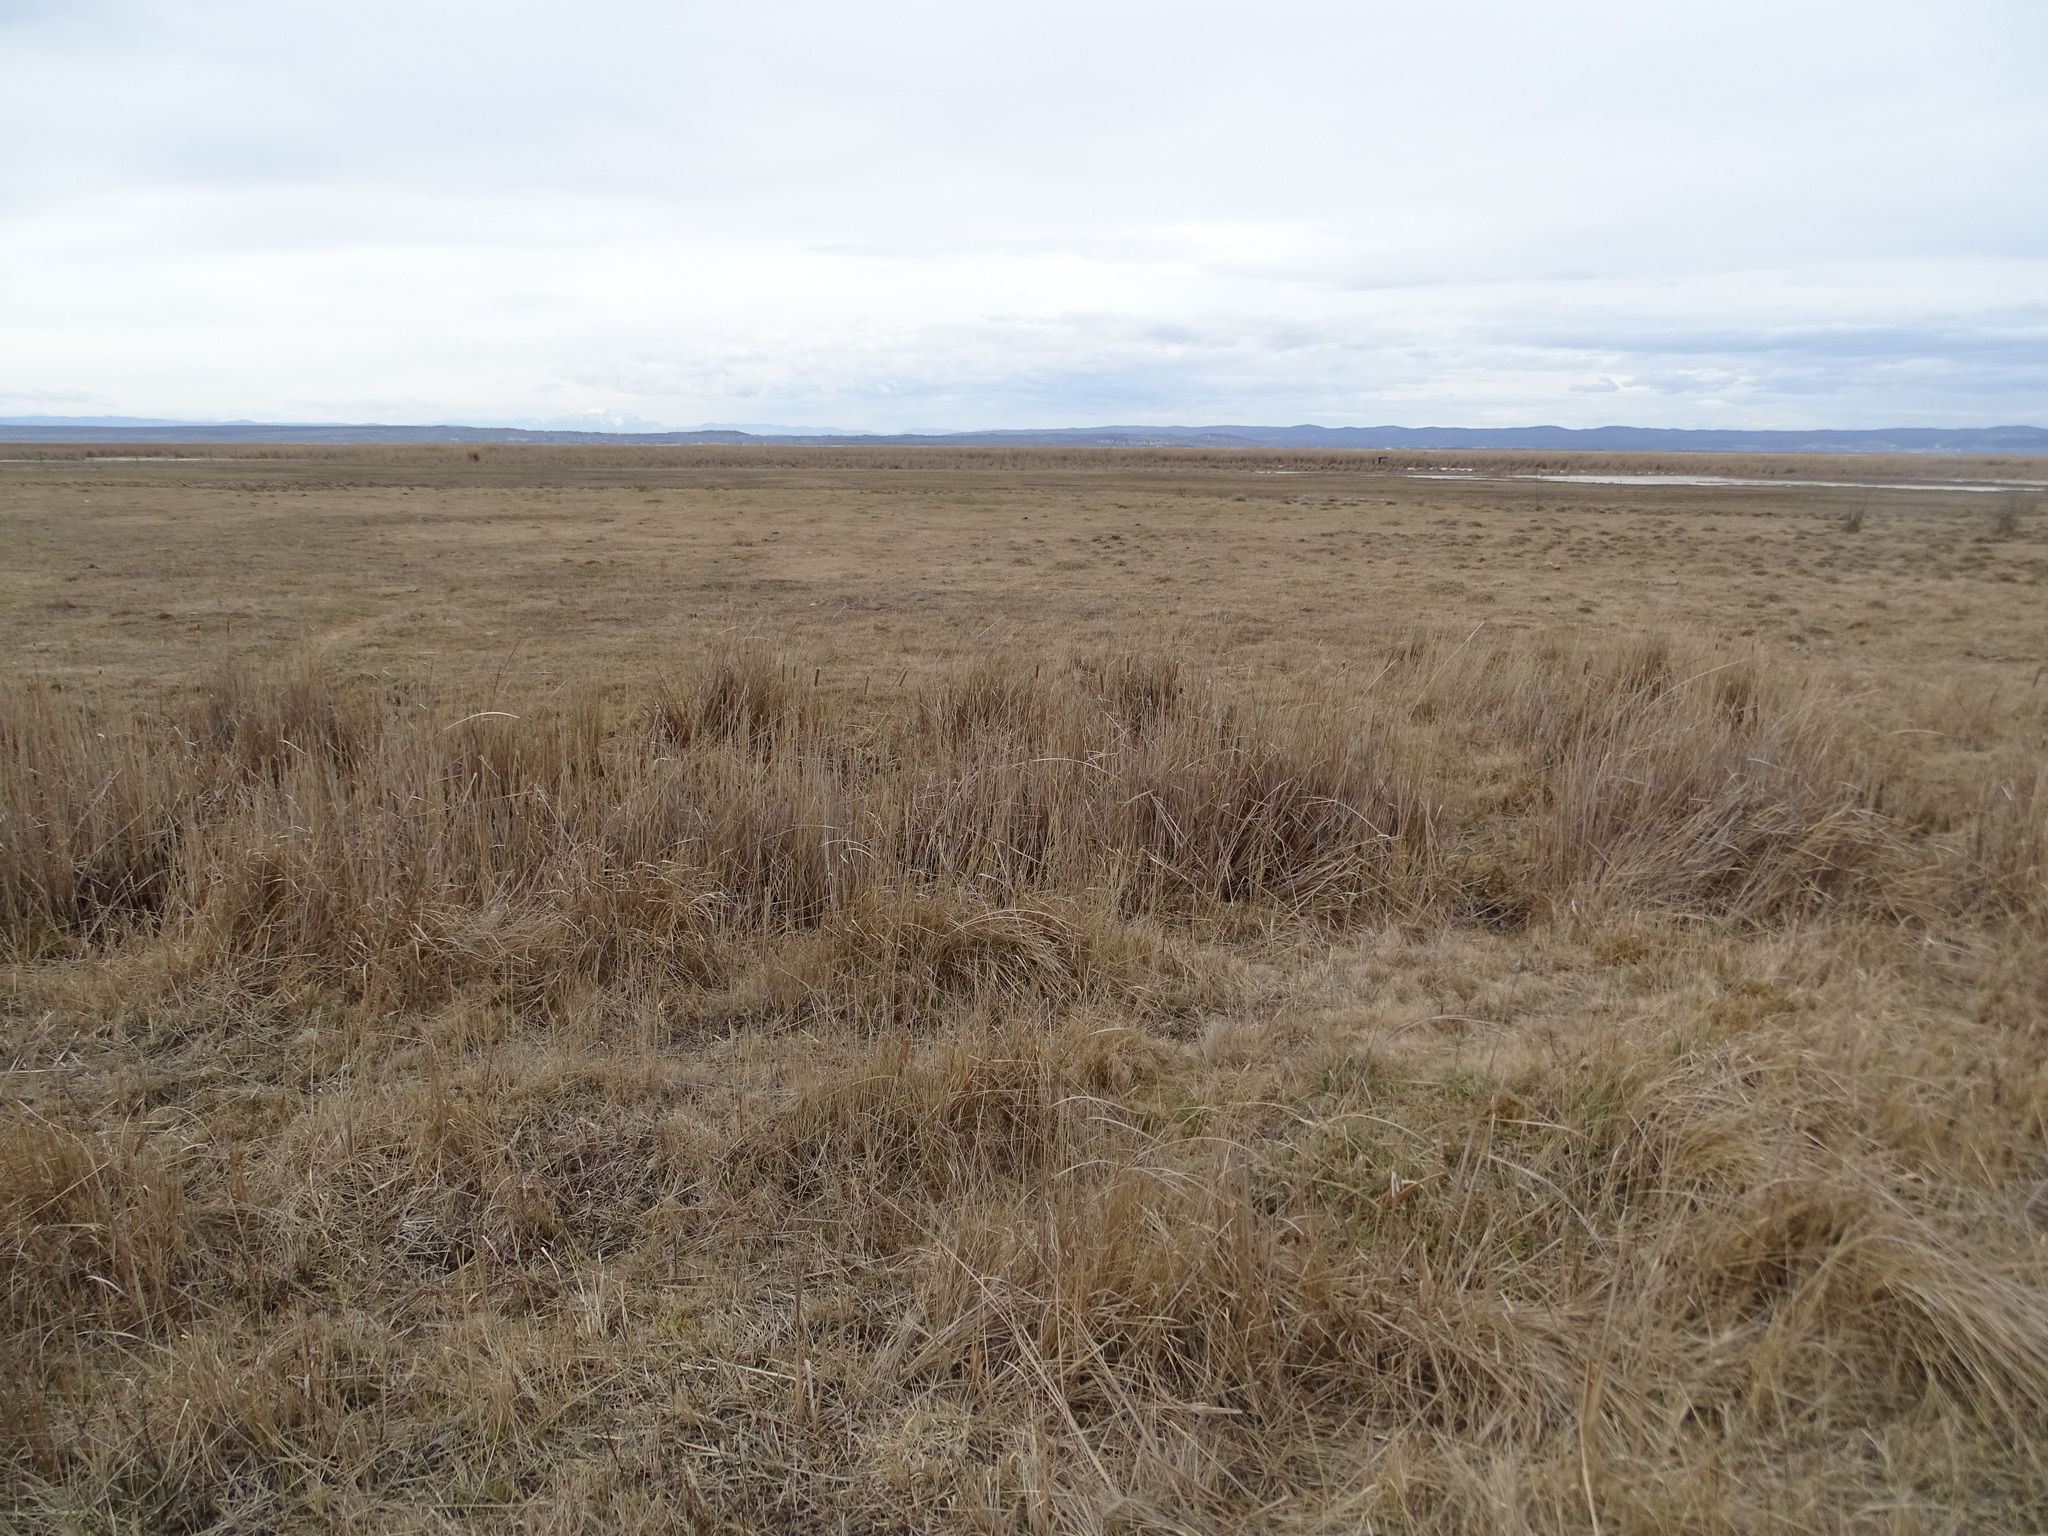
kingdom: Plantae
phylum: Tracheophyta
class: Liliopsida
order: Poales
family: Typhaceae
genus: Typha
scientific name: Typha angustifolia
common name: Lesser bulrush
